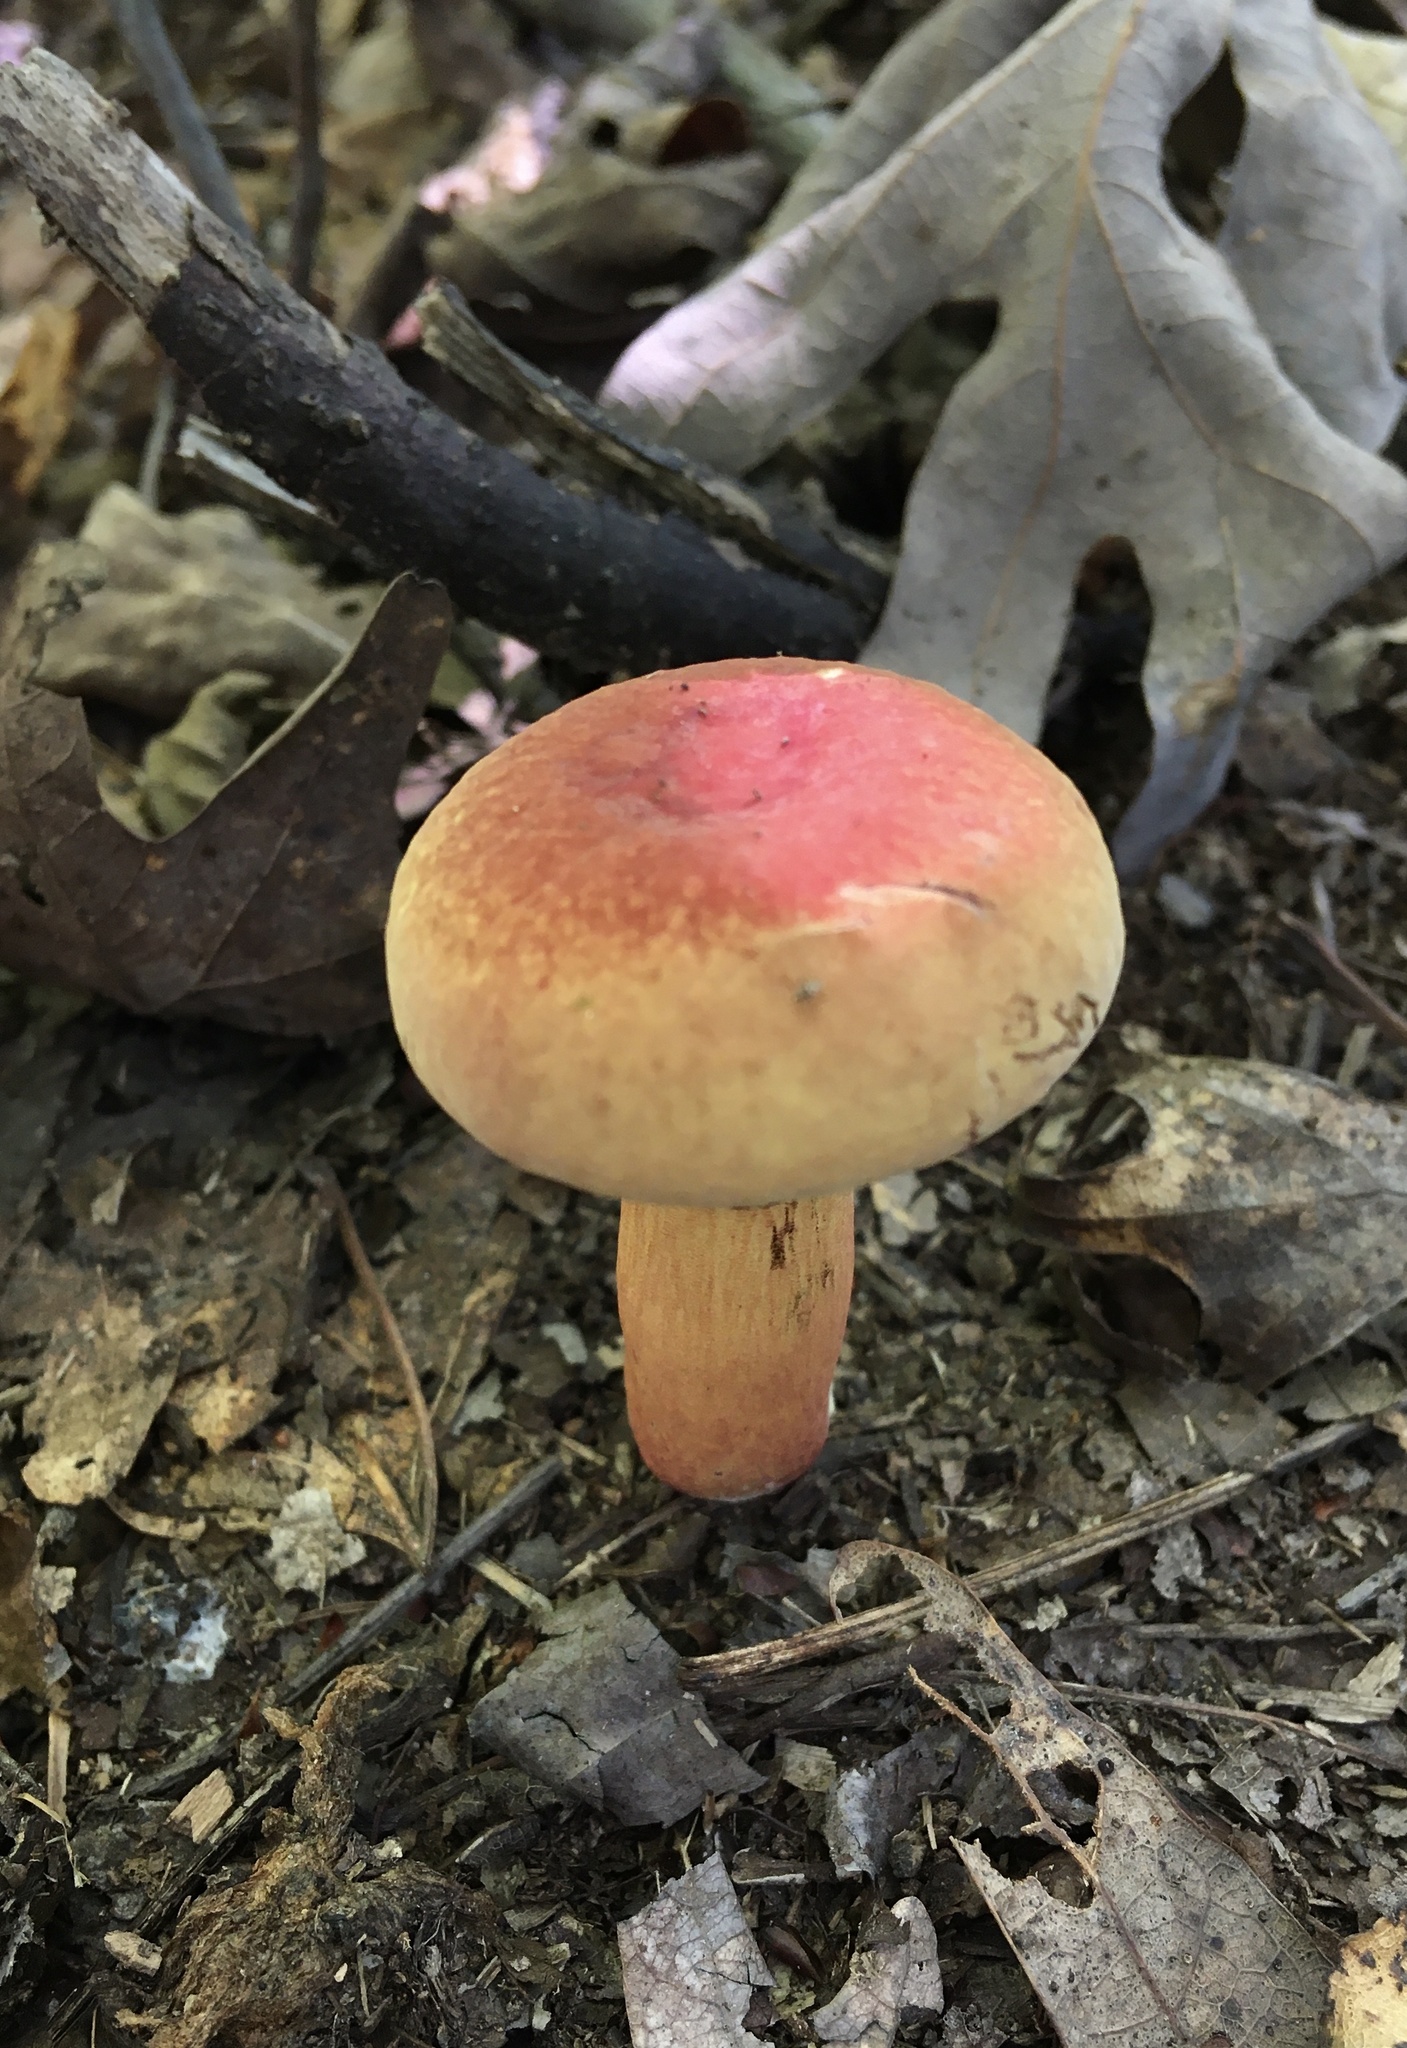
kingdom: Fungi
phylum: Basidiomycota
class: Agaricomycetes
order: Boletales
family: Boletaceae
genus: Pulchroboletus
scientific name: Pulchroboletus sclerotiorum
